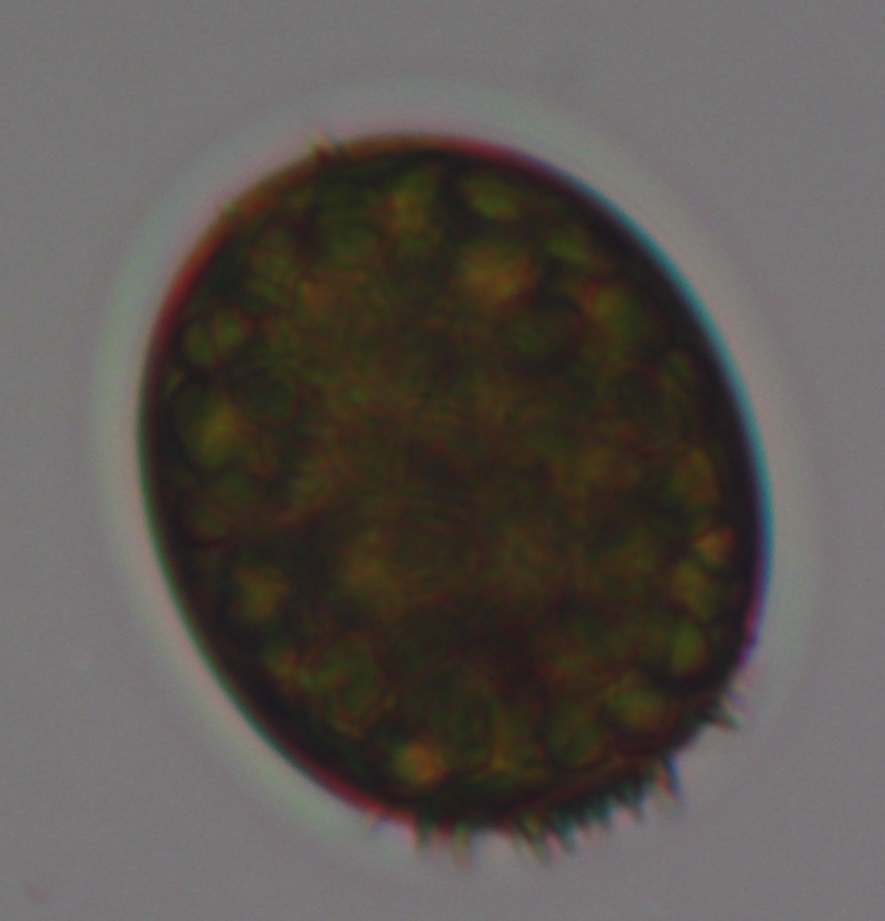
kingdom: Protozoa
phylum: Euglenozoa
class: Euglenoidea
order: Euglenida
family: Euglenaceae
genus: Trachelomonas
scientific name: Trachelomonas
